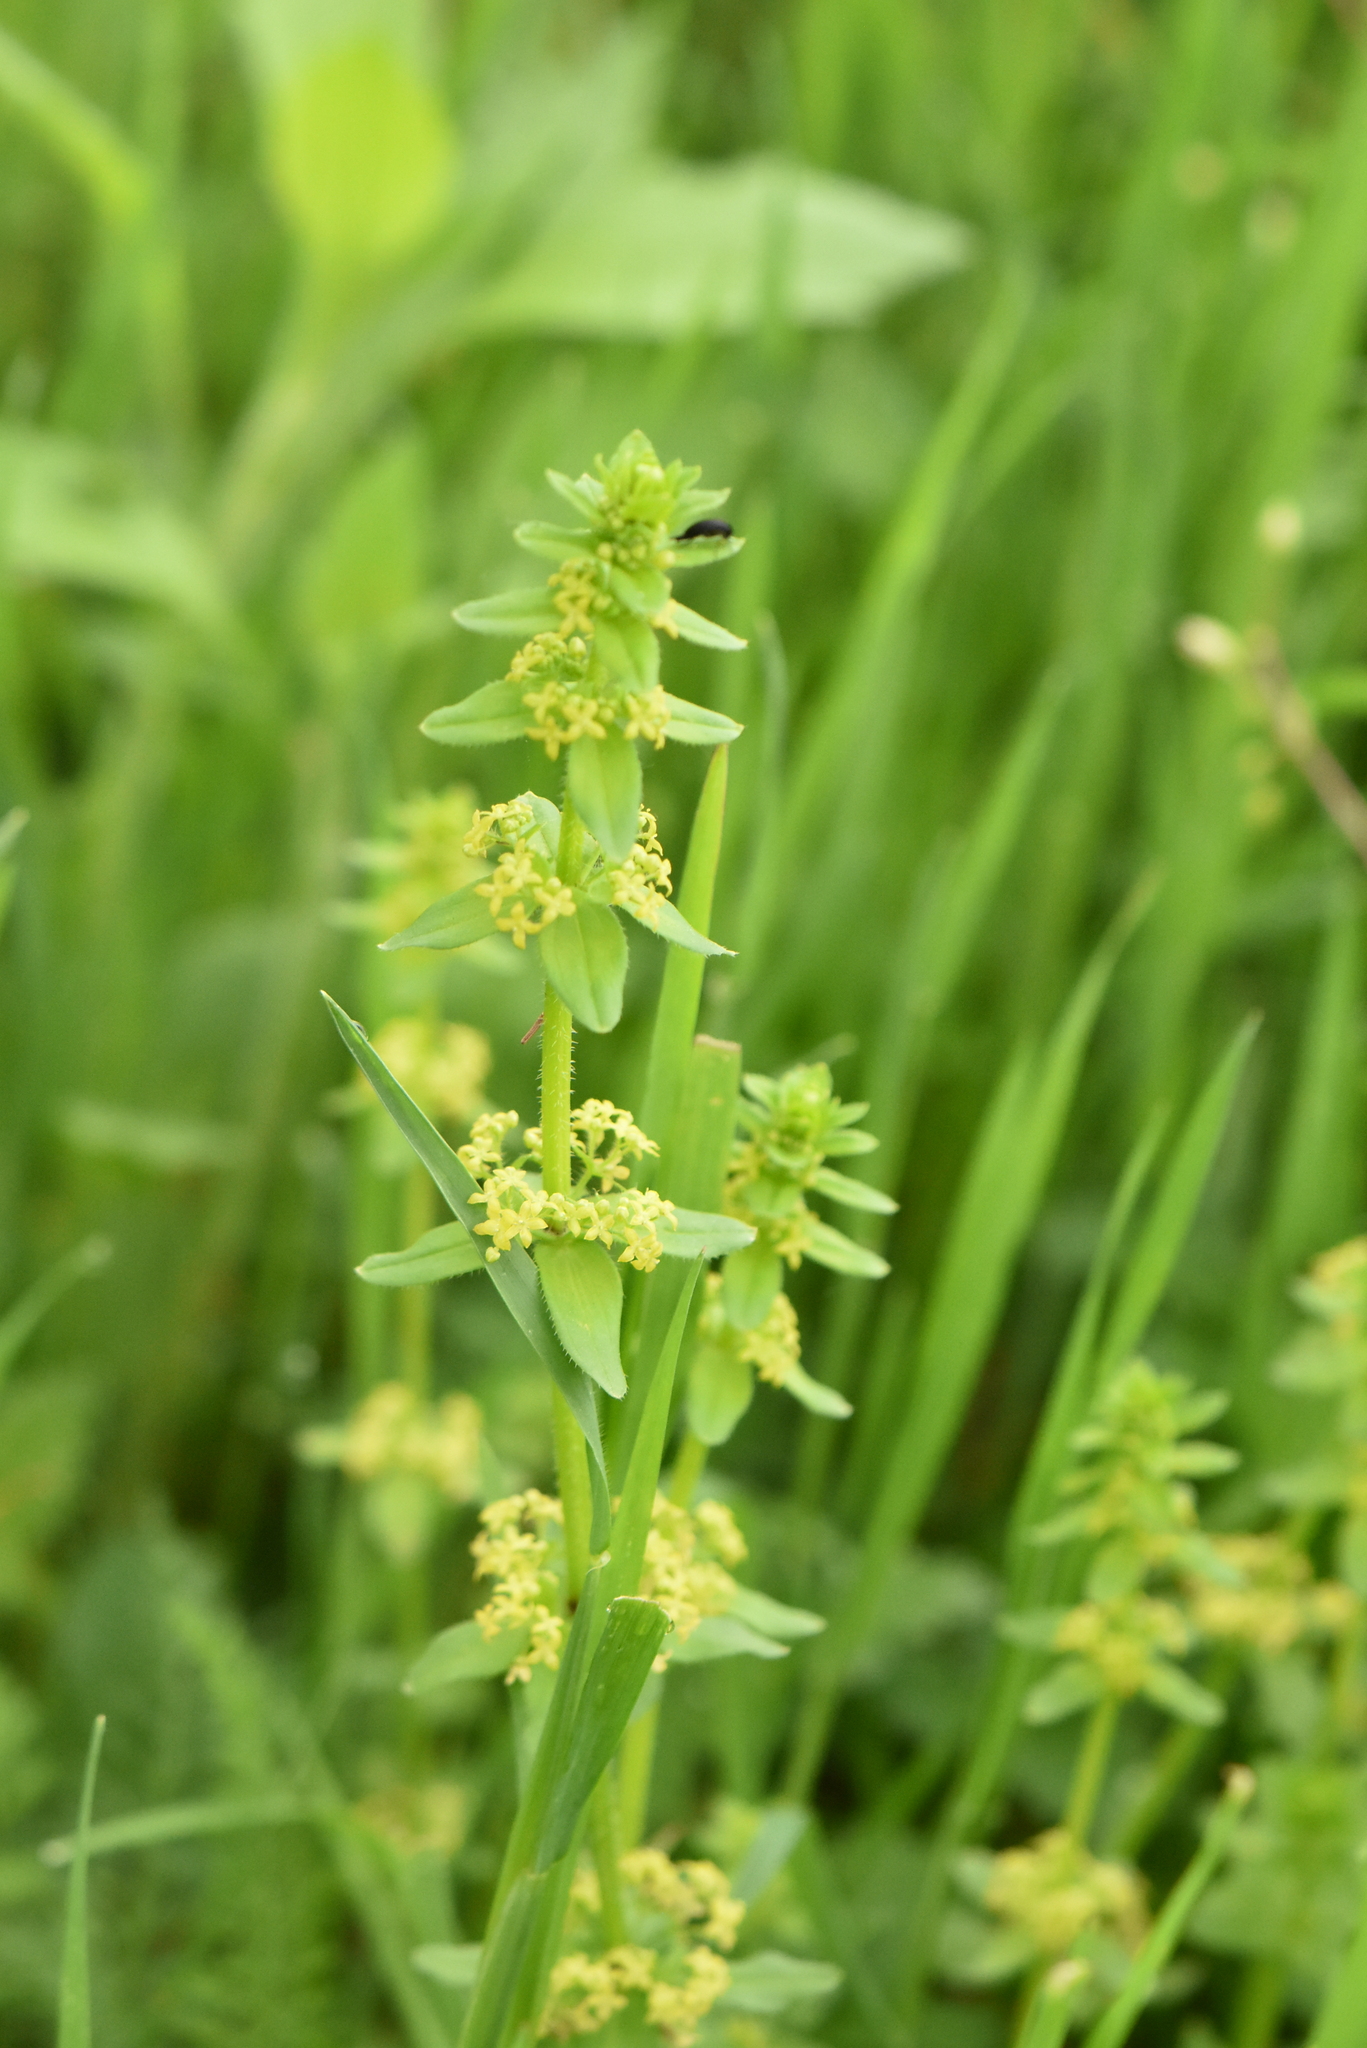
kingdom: Plantae
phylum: Tracheophyta
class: Magnoliopsida
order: Gentianales
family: Rubiaceae
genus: Cruciata
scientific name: Cruciata laevipes
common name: Crosswort
